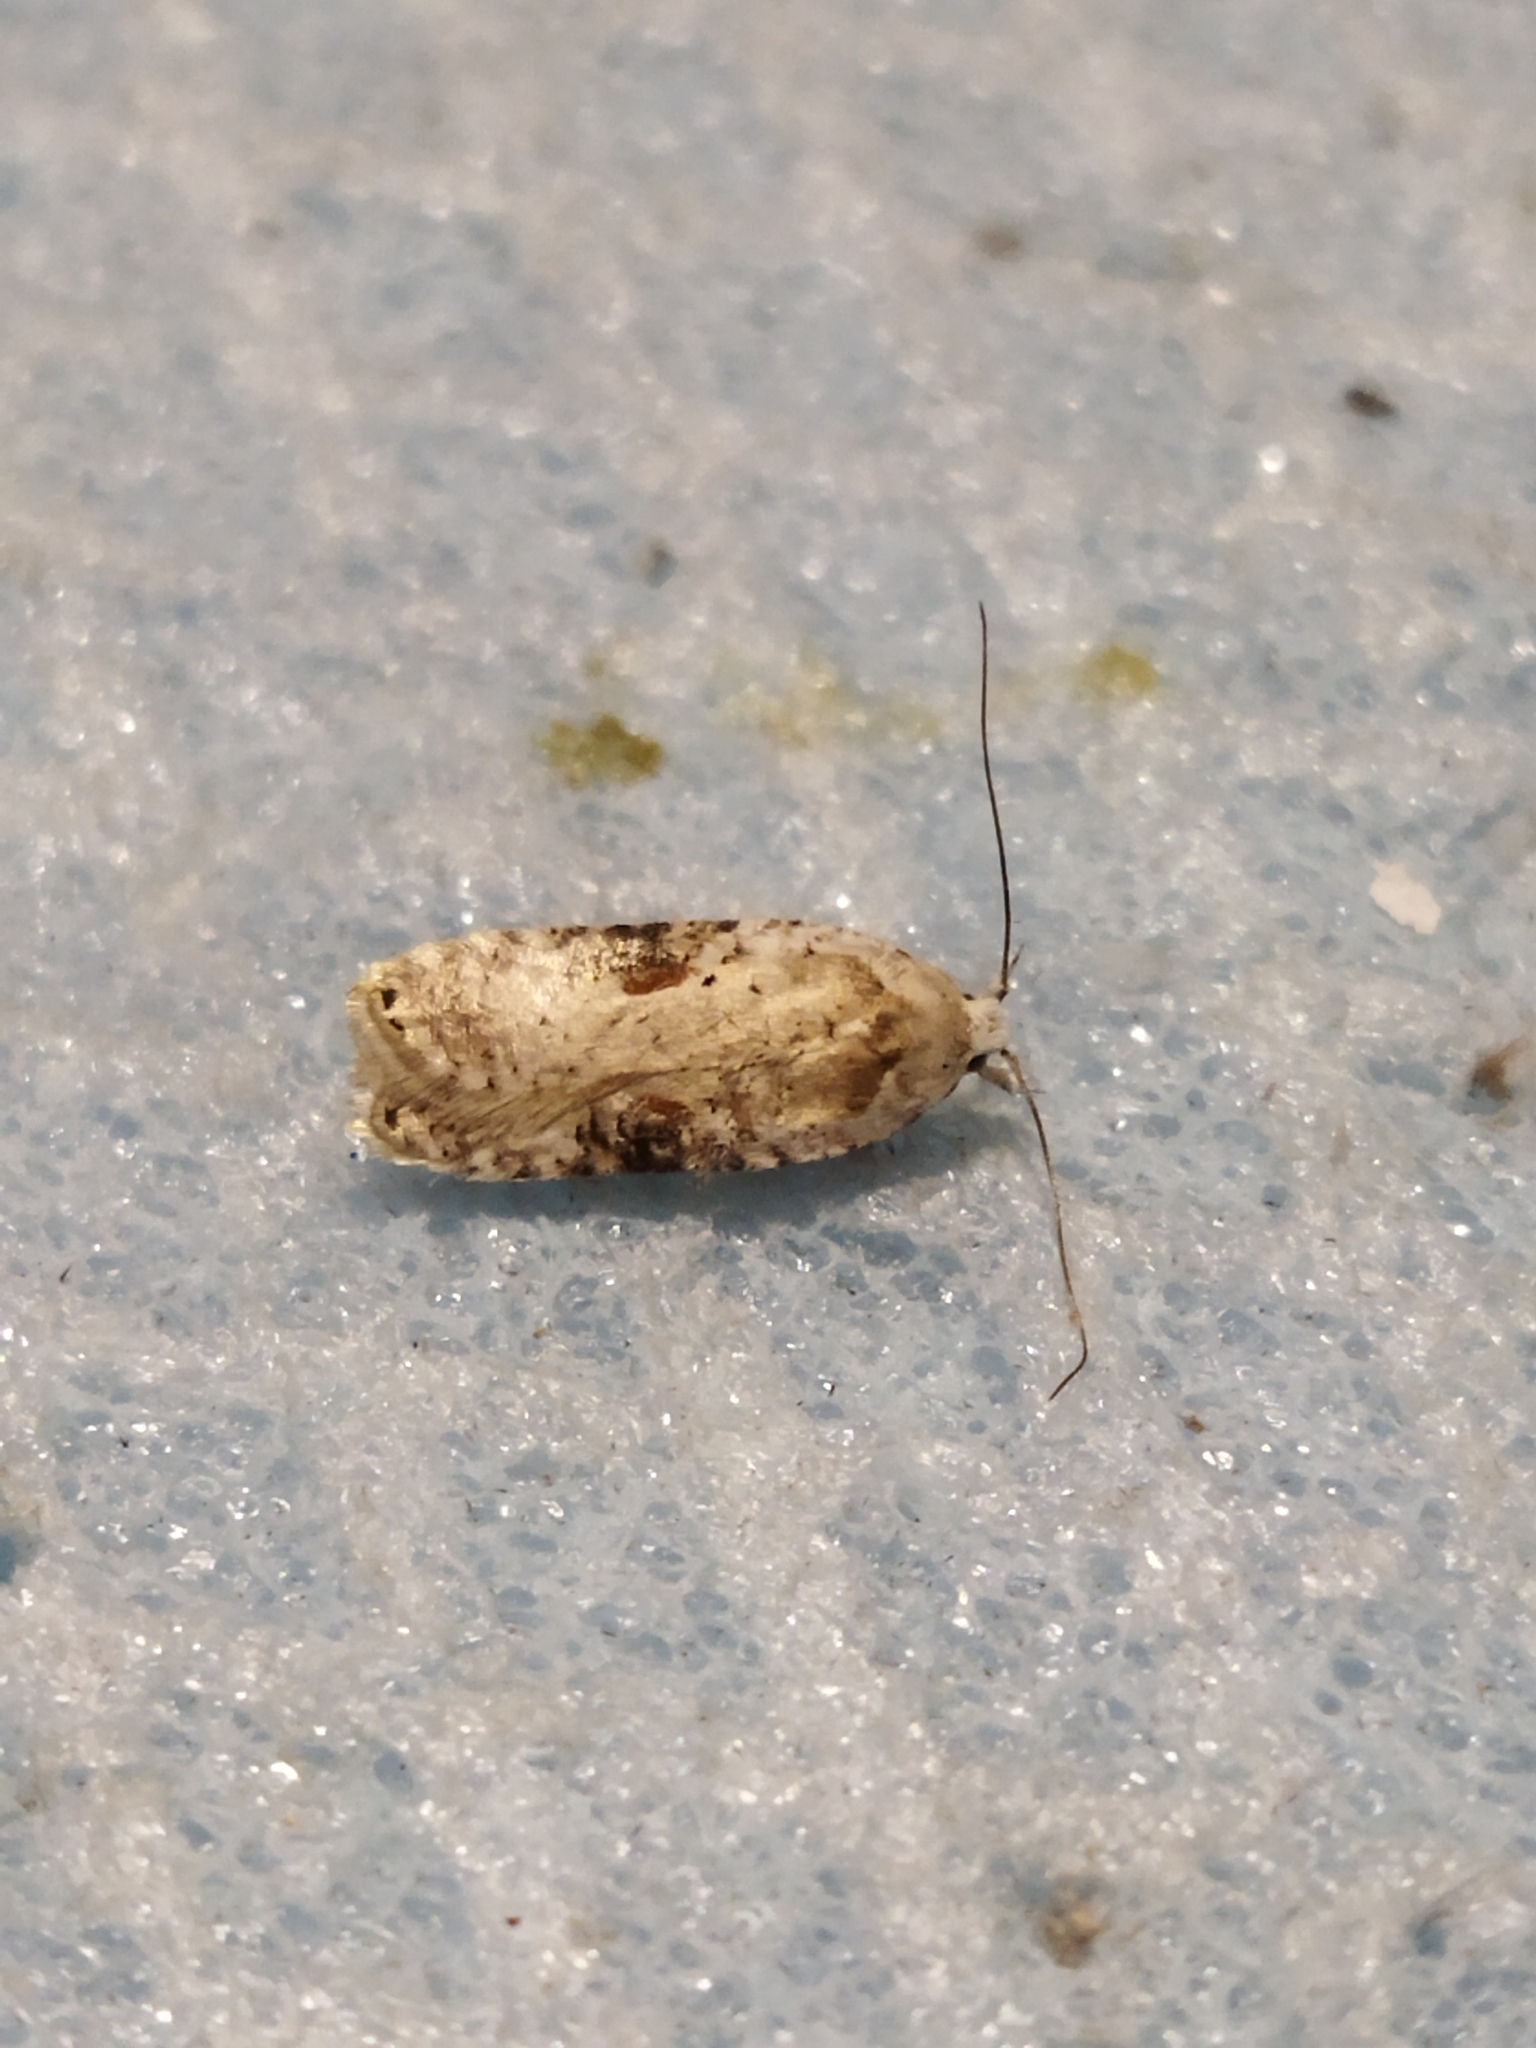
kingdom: Animalia
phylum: Arthropoda
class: Insecta
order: Lepidoptera
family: Depressariidae
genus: Agonopterix
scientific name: Agonopterix alstroemeriana
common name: Moth
